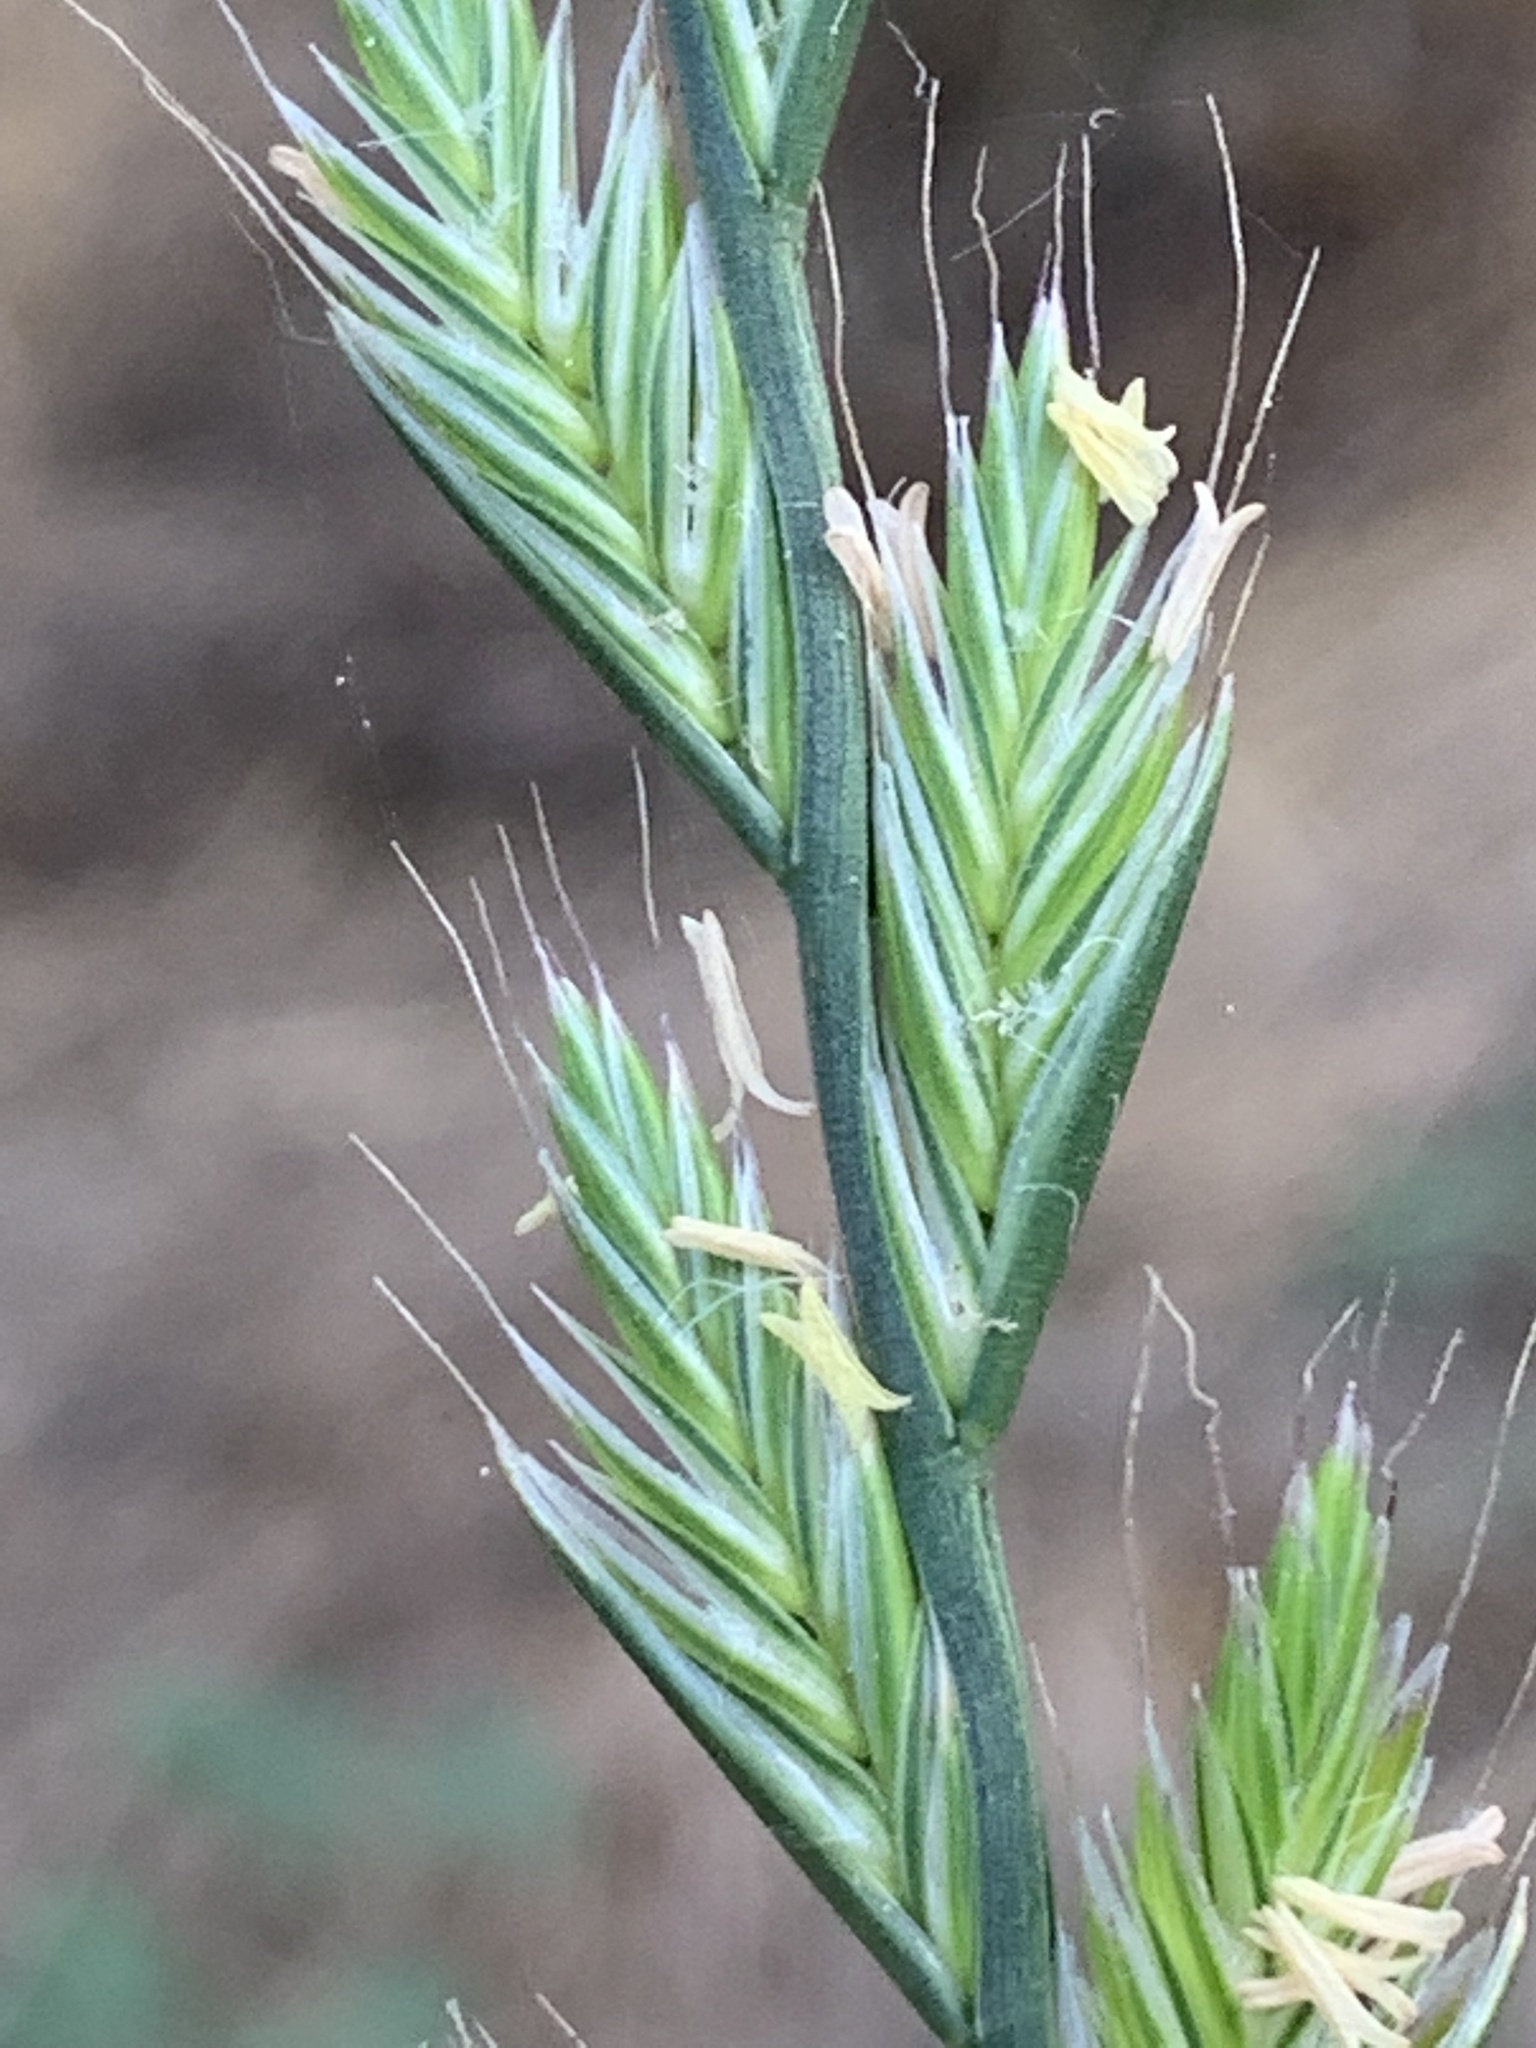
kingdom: Plantae
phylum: Tracheophyta
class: Liliopsida
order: Poales
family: Poaceae
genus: Lolium
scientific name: Lolium multiflorum
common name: Annual ryegrass
